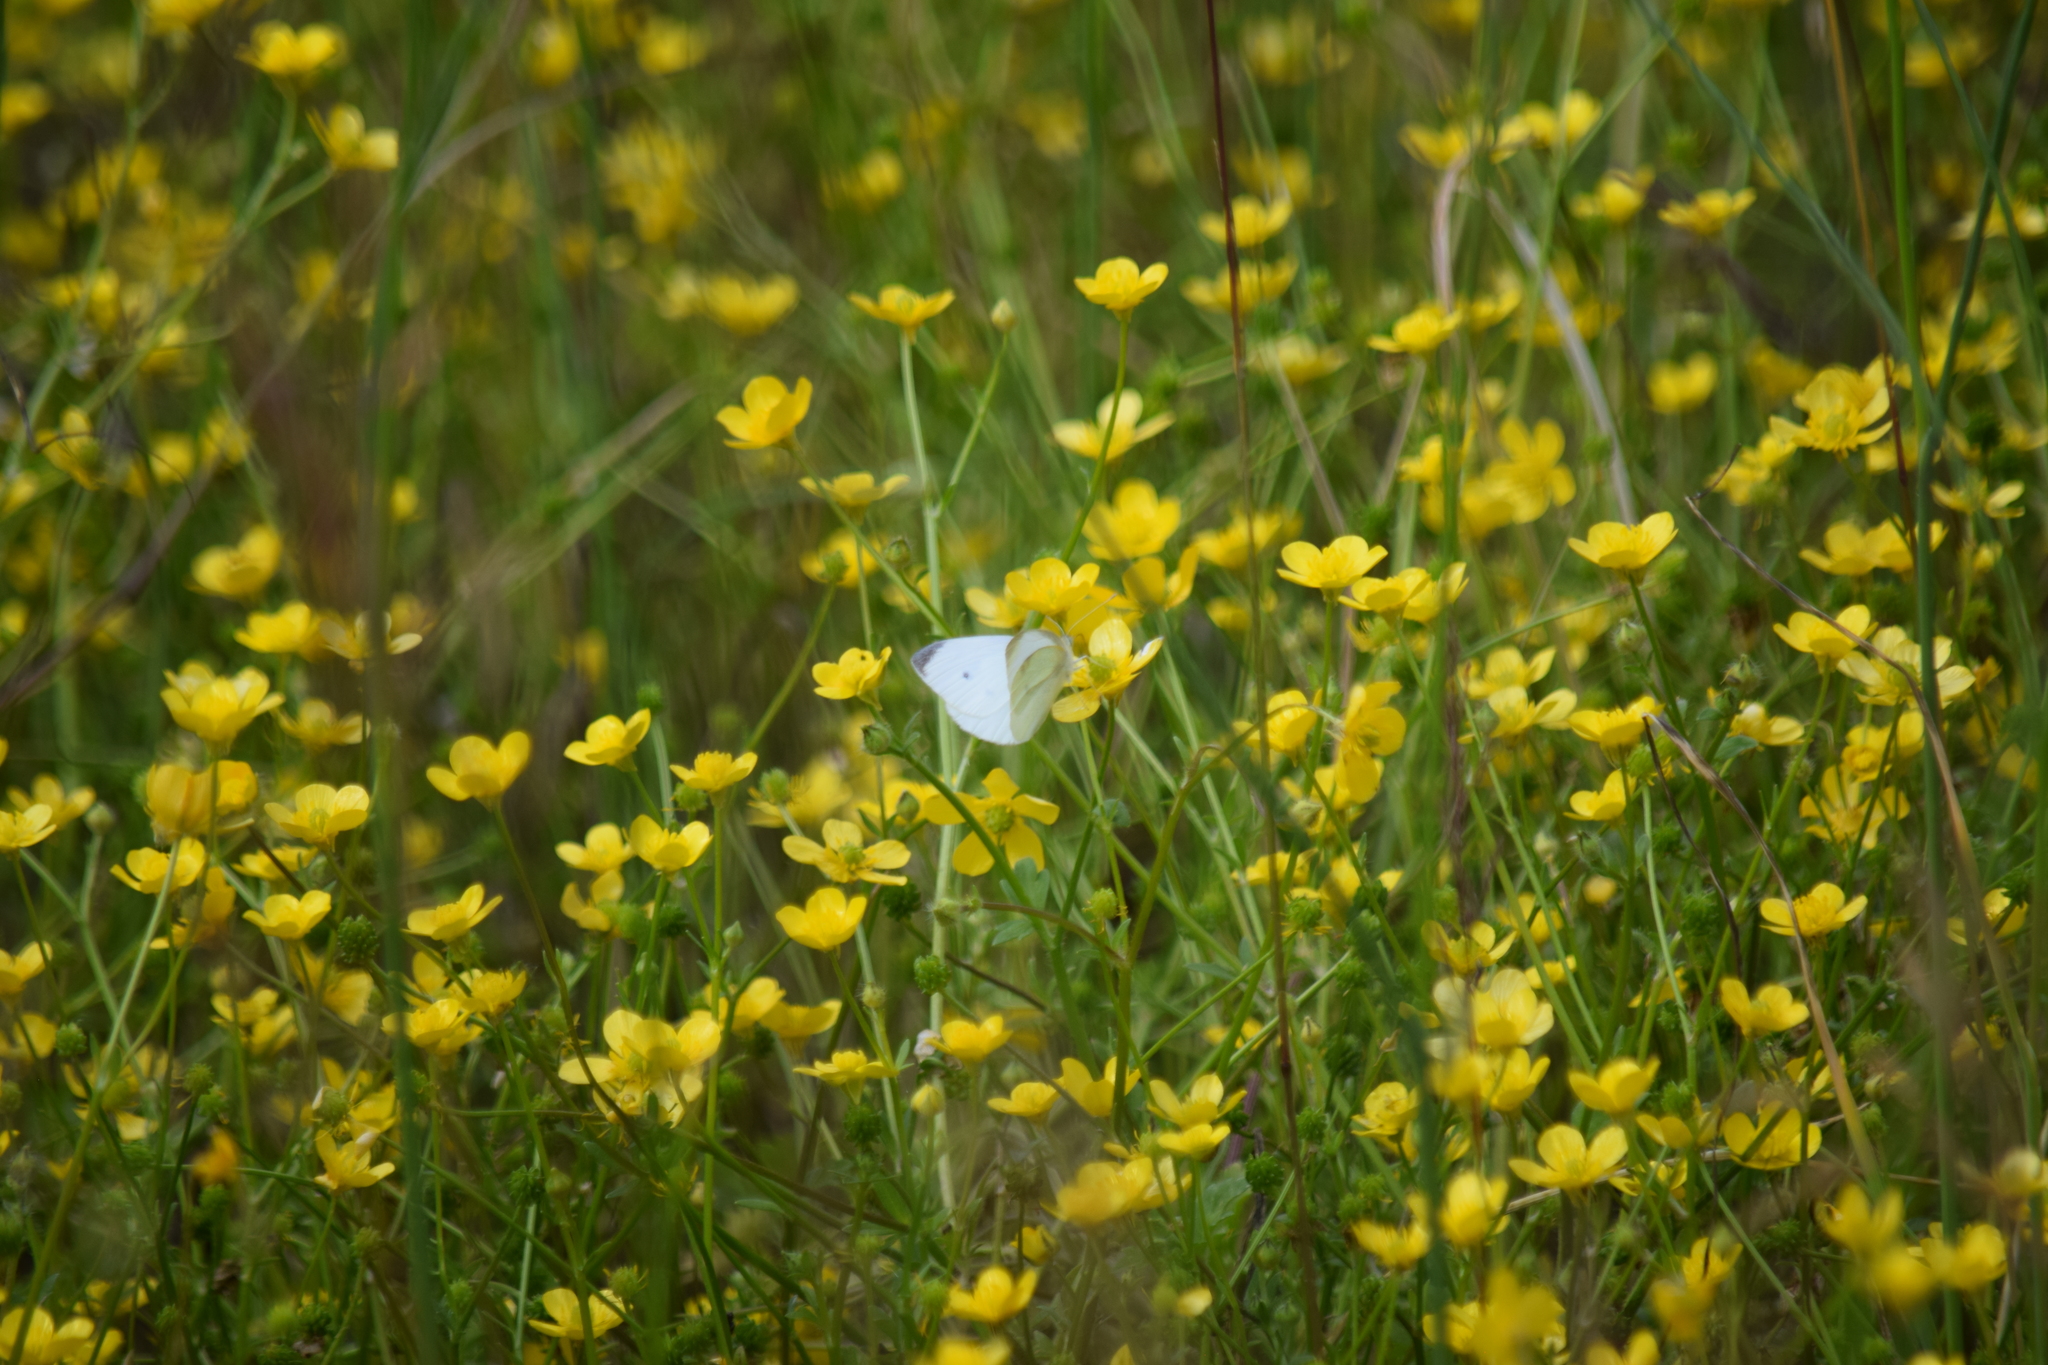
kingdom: Animalia
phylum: Arthropoda
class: Insecta
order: Lepidoptera
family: Pieridae
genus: Pieris
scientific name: Pieris rapae
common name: Small white
